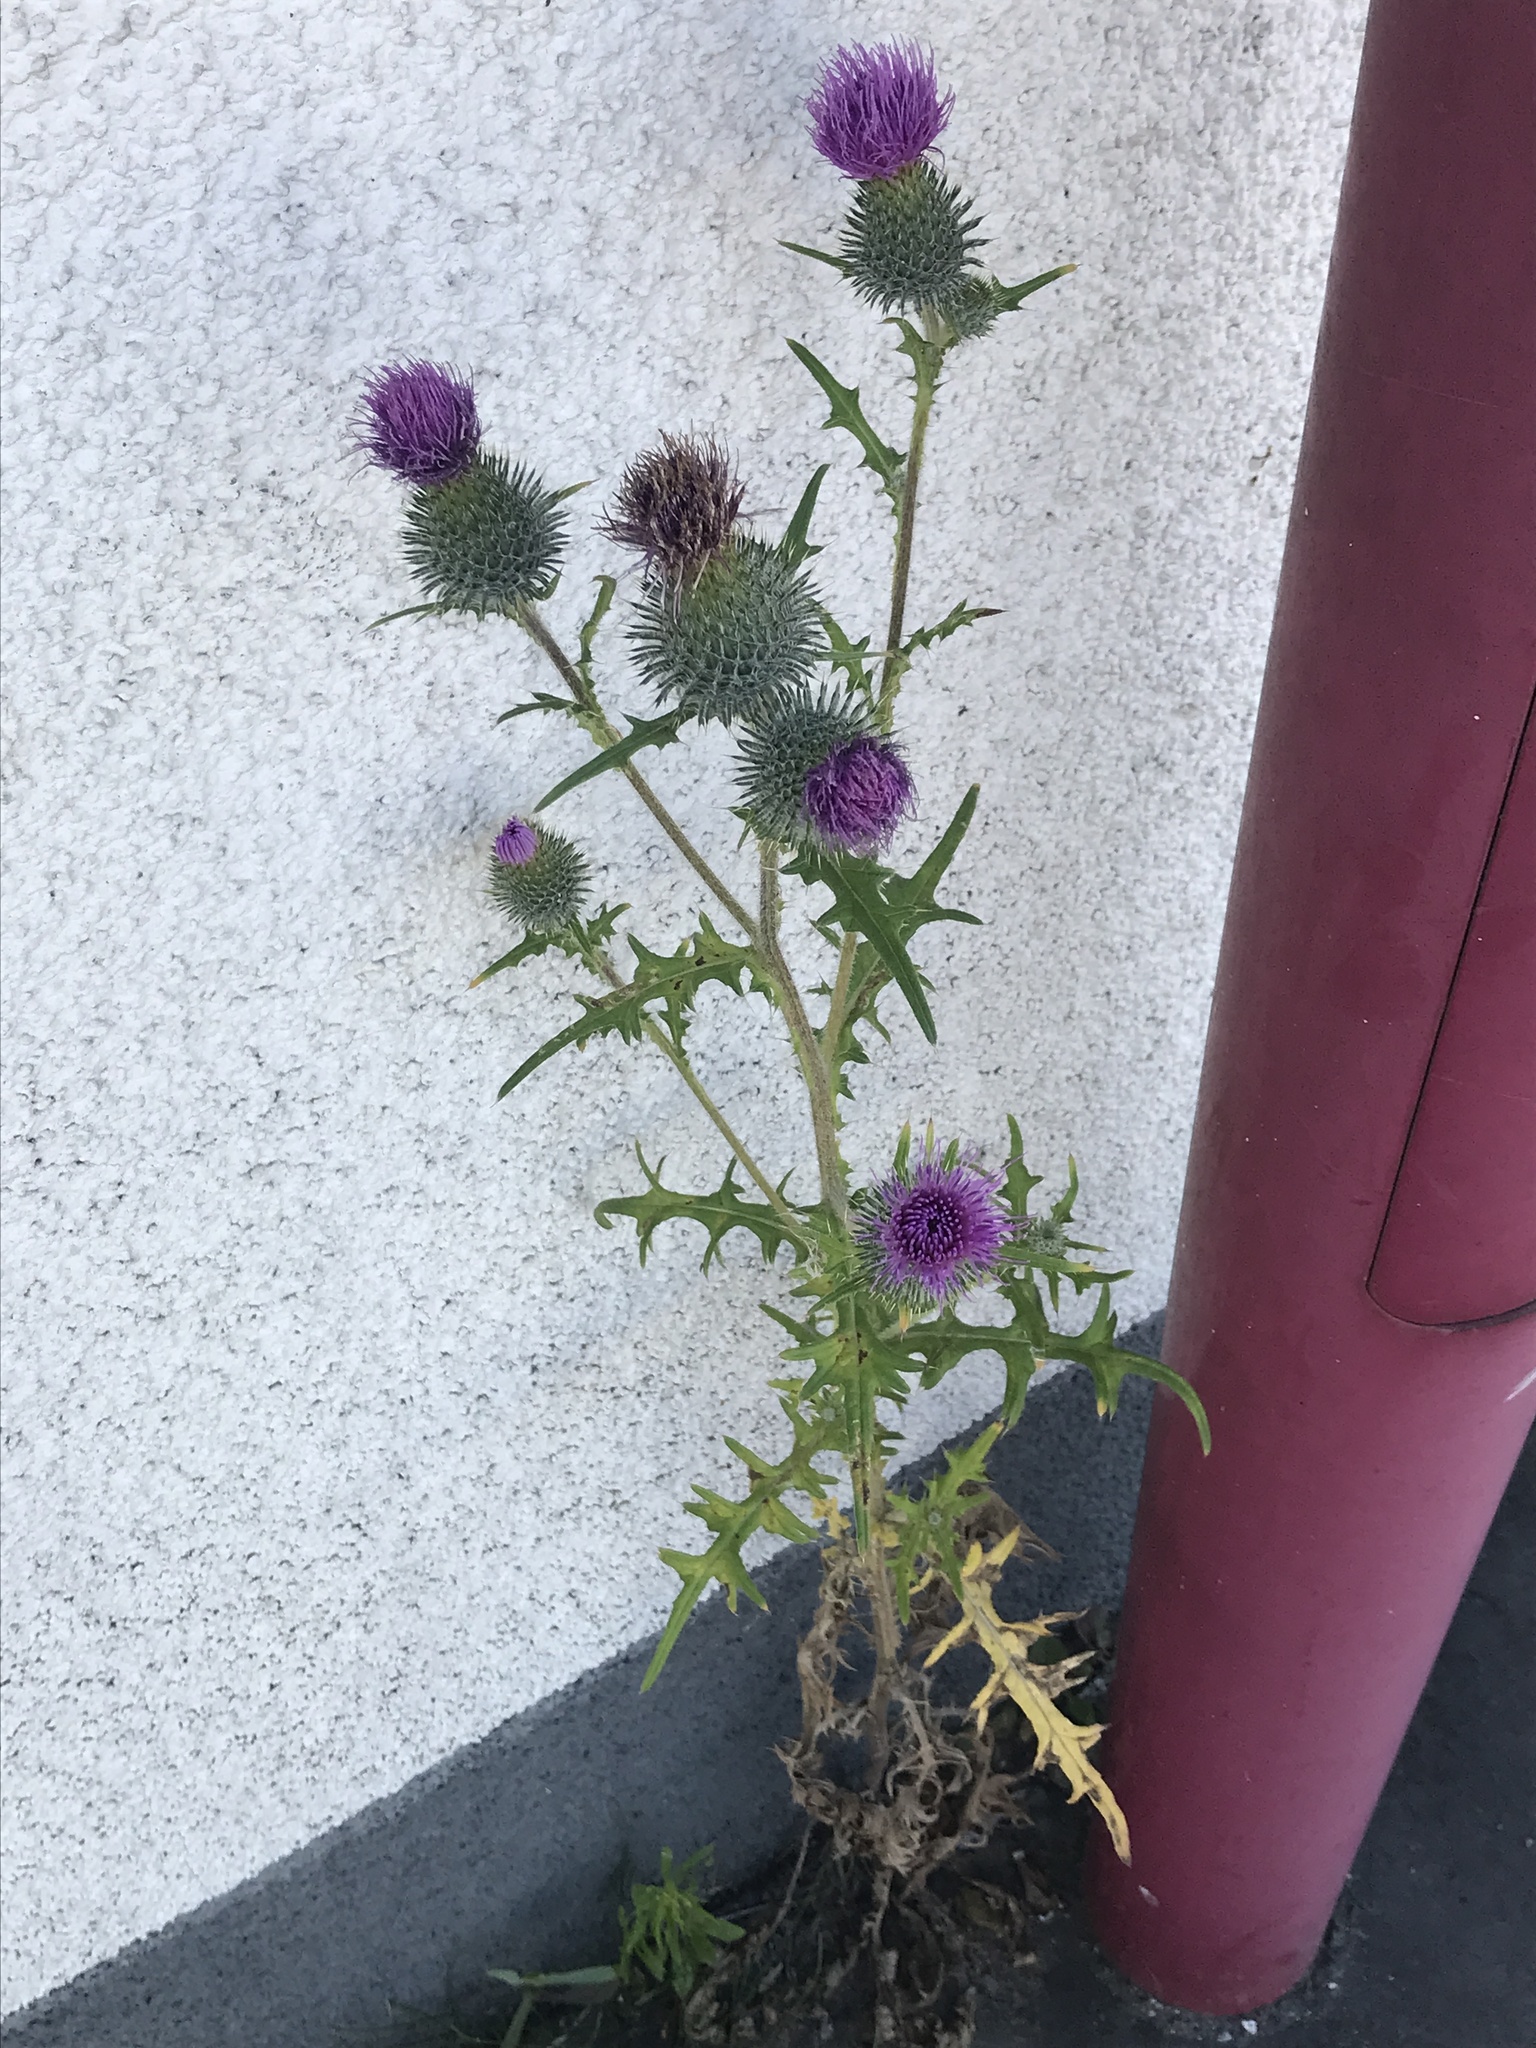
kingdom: Plantae
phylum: Tracheophyta
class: Magnoliopsida
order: Asterales
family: Asteraceae
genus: Cirsium
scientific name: Cirsium vulgare
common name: Bull thistle
